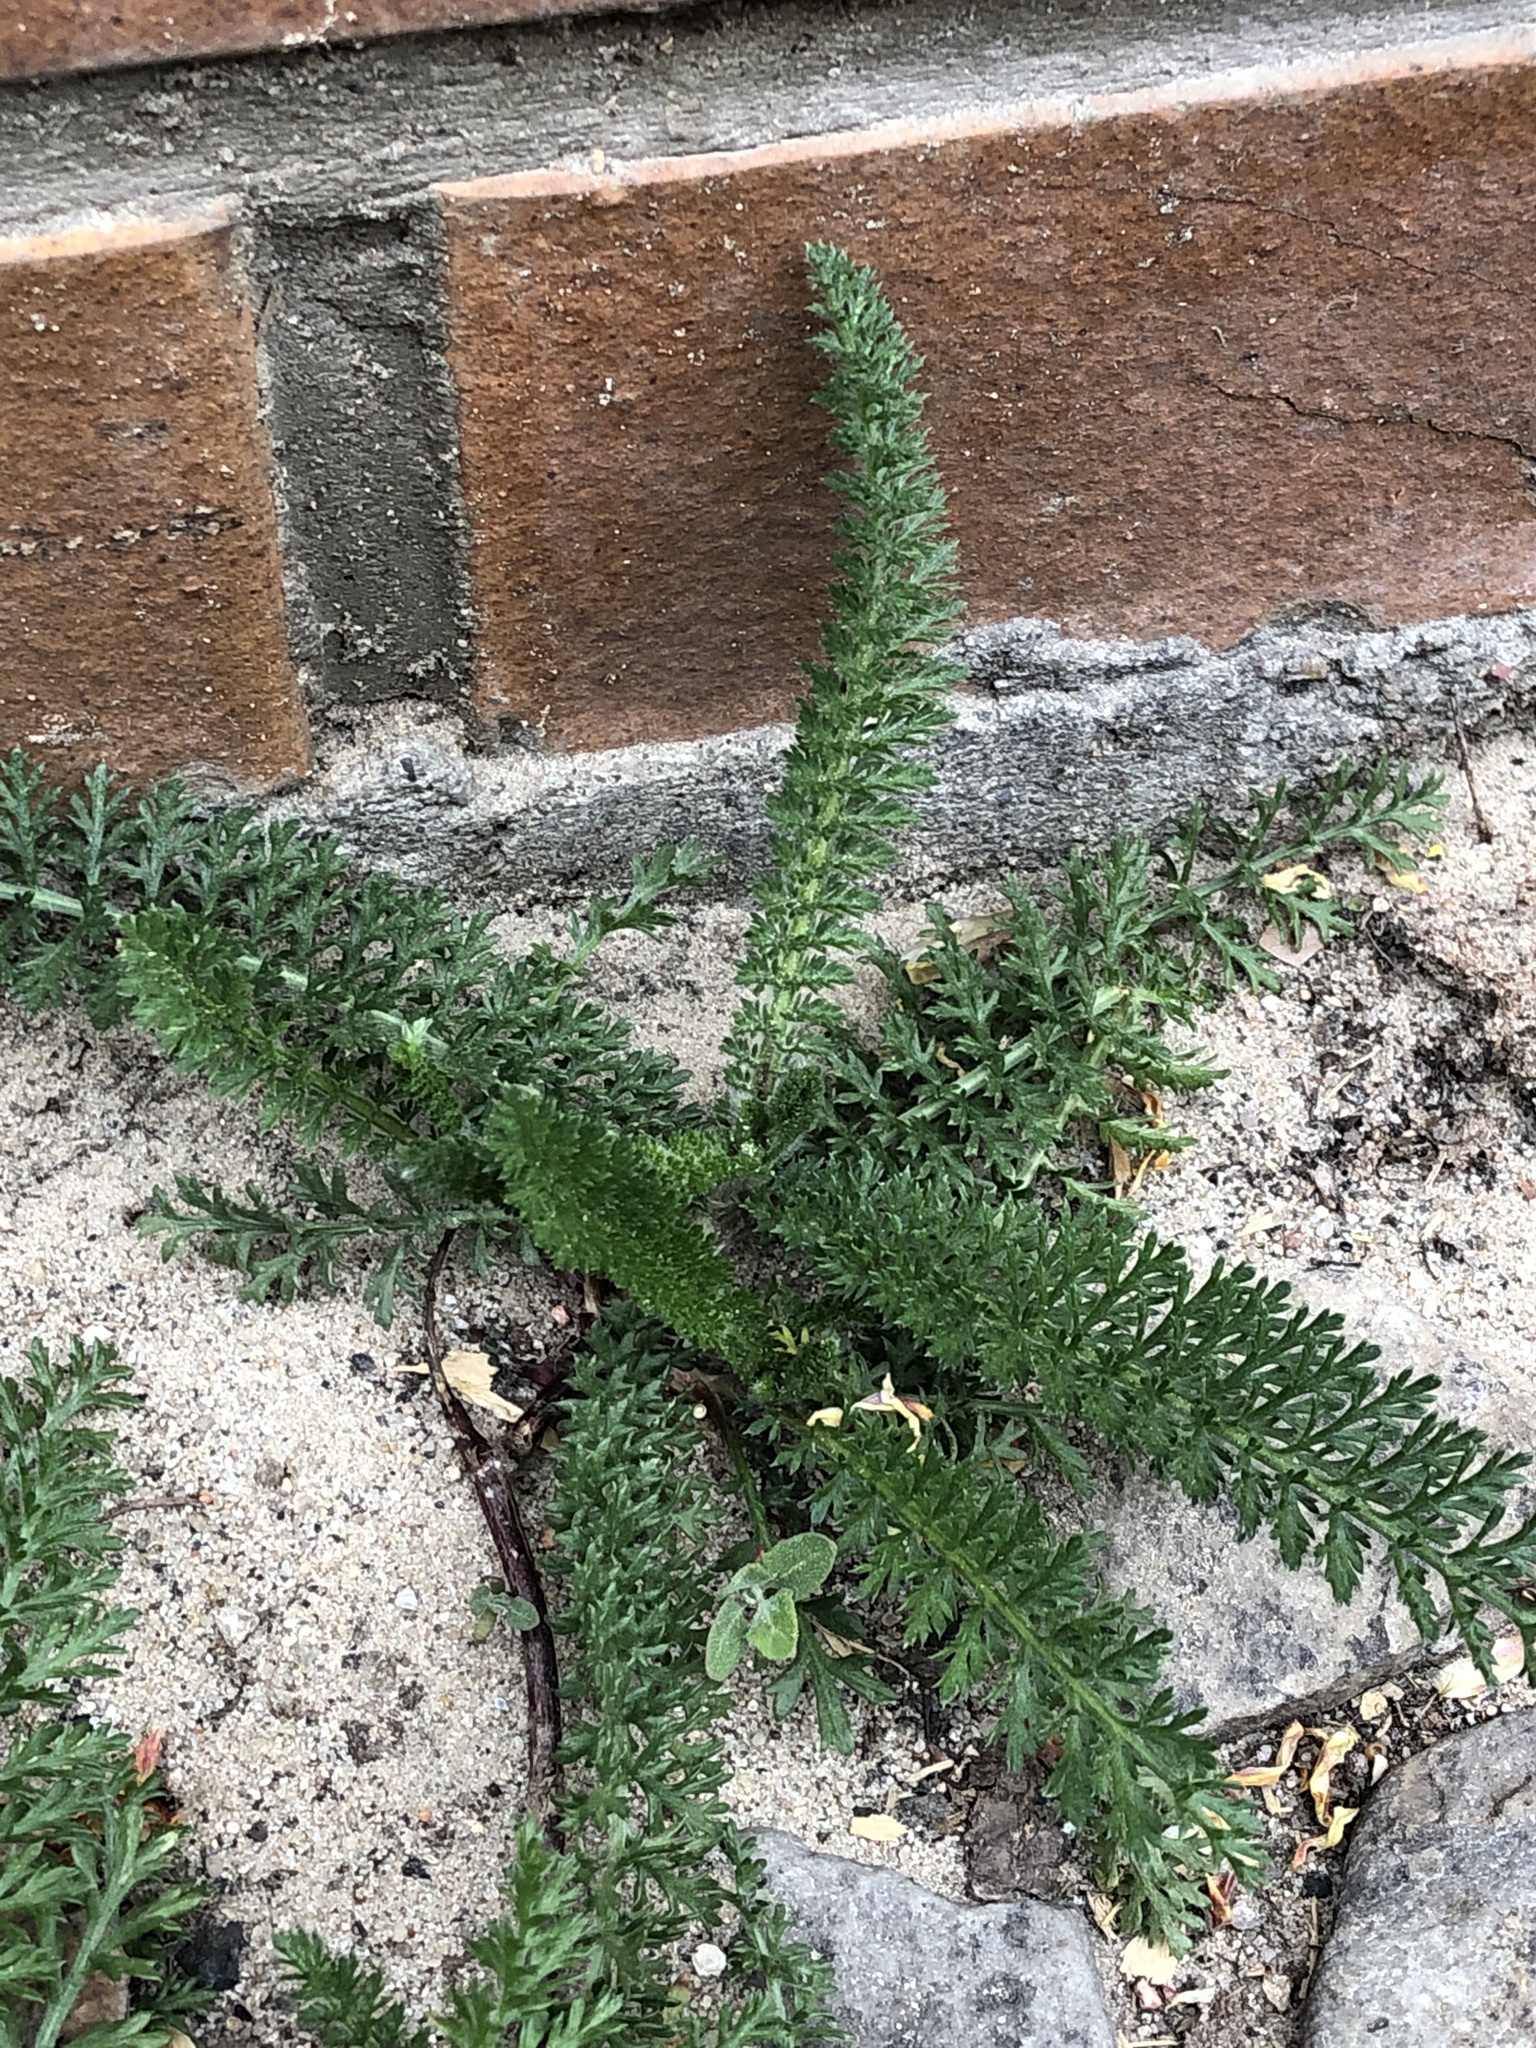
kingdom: Plantae
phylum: Tracheophyta
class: Magnoliopsida
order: Asterales
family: Asteraceae
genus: Achillea
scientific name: Achillea millefolium
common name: Yarrow
